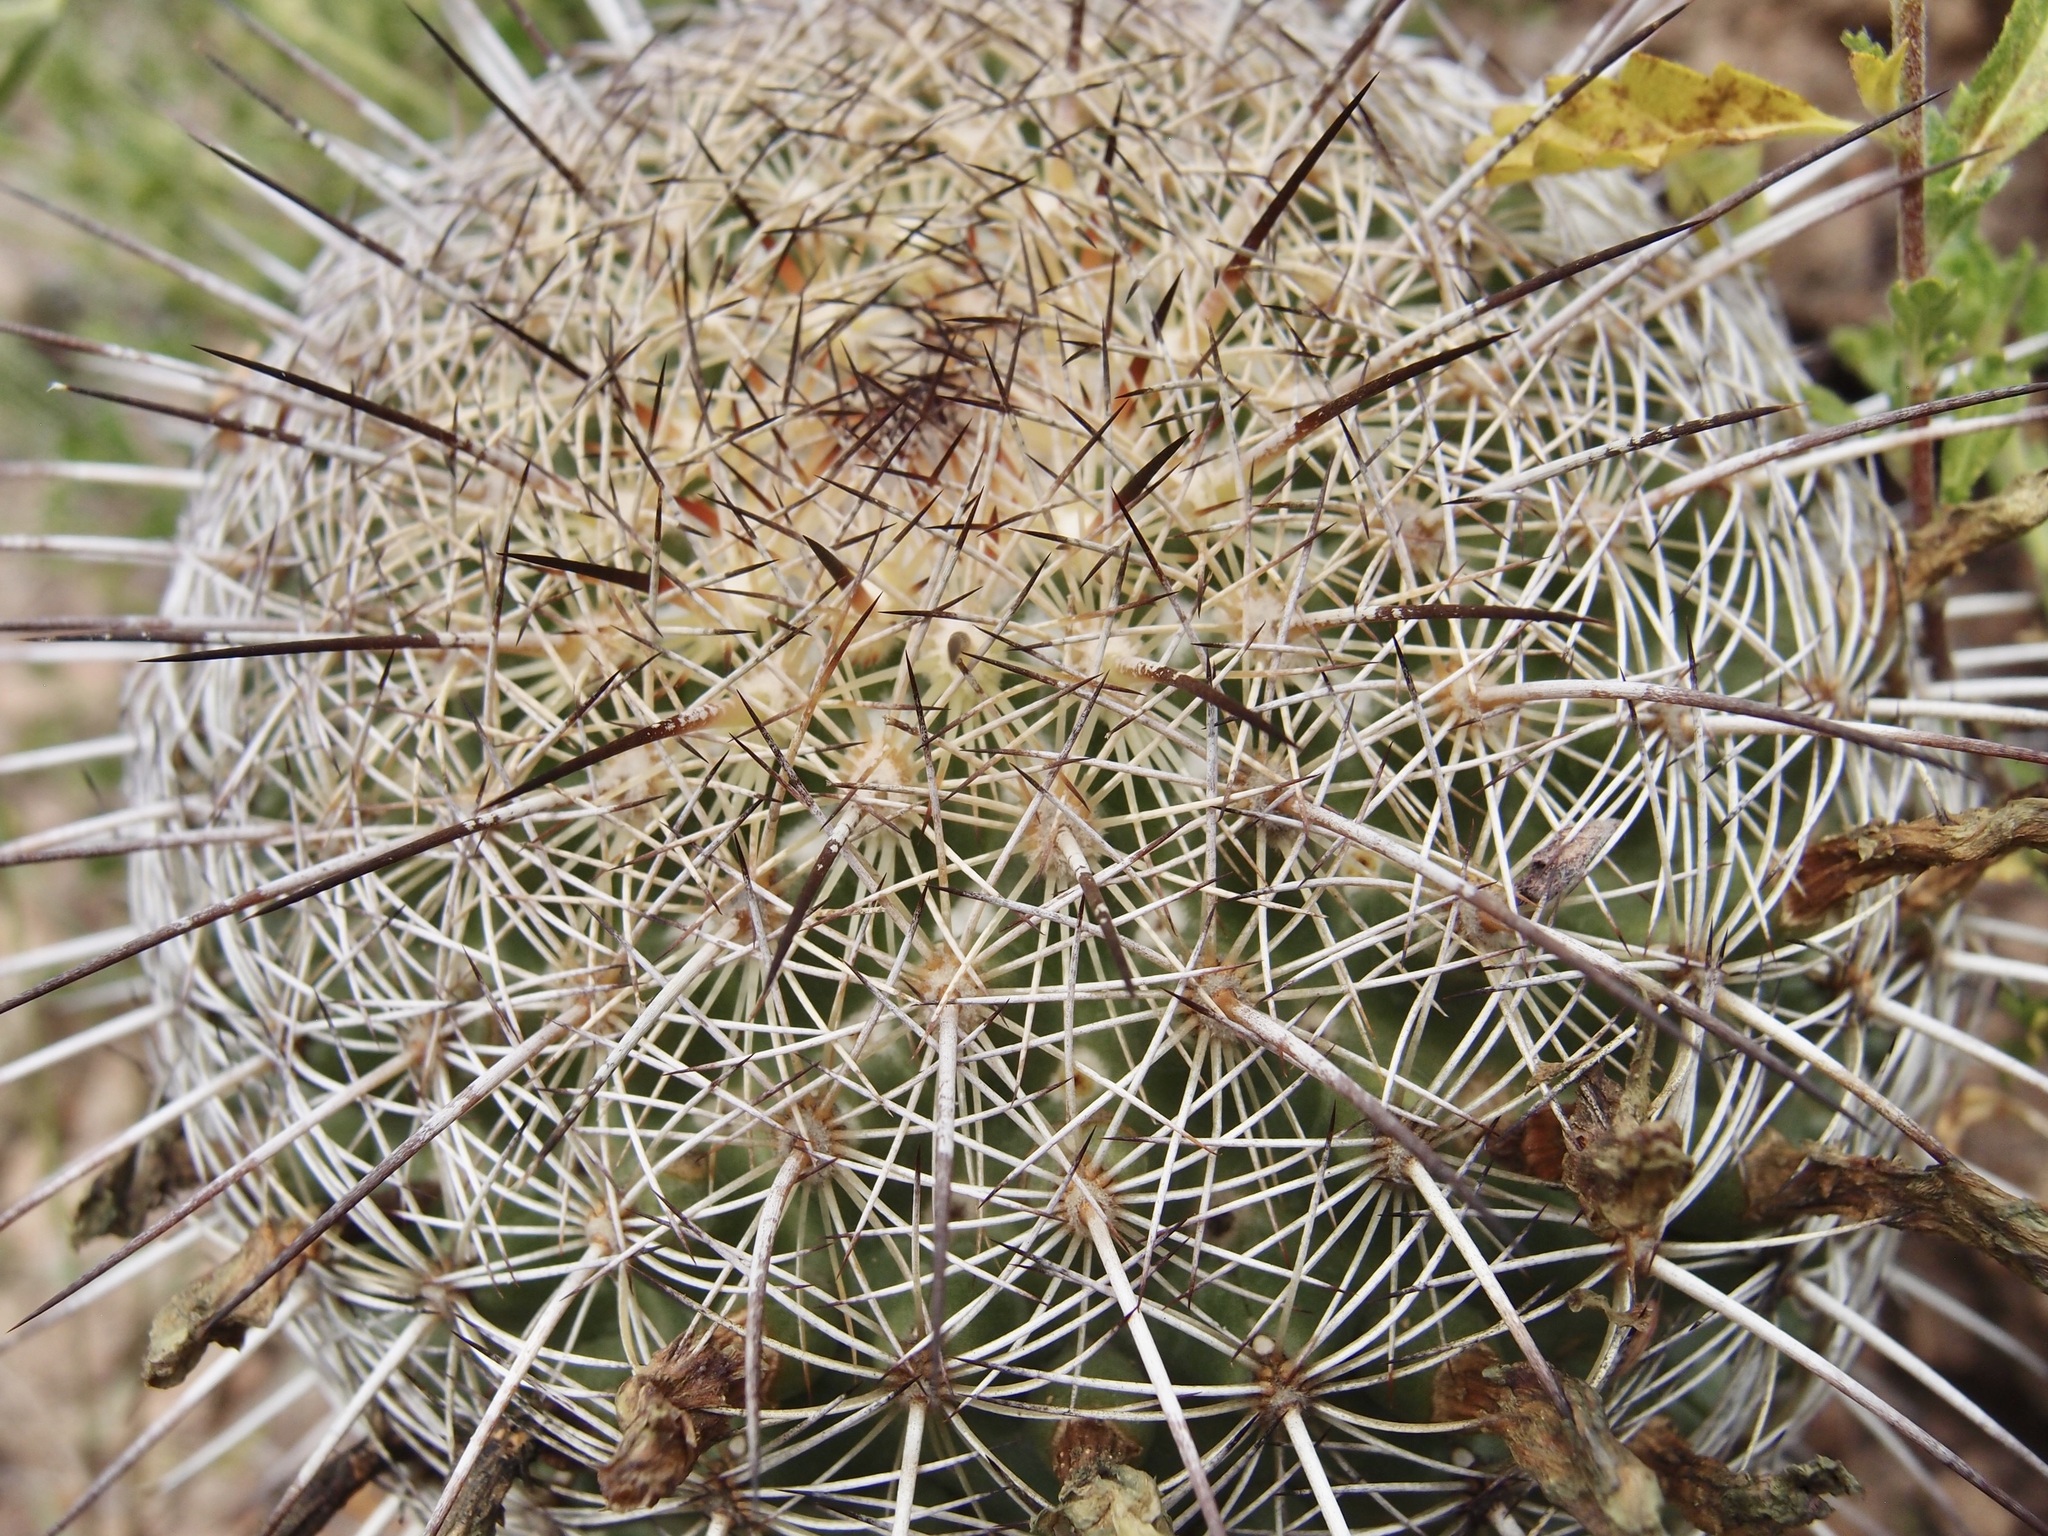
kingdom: Plantae
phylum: Tracheophyta
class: Magnoliopsida
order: Caryophyllales
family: Cactaceae
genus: Coryphantha
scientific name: Coryphantha recurvata
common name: Golden chested beehive
